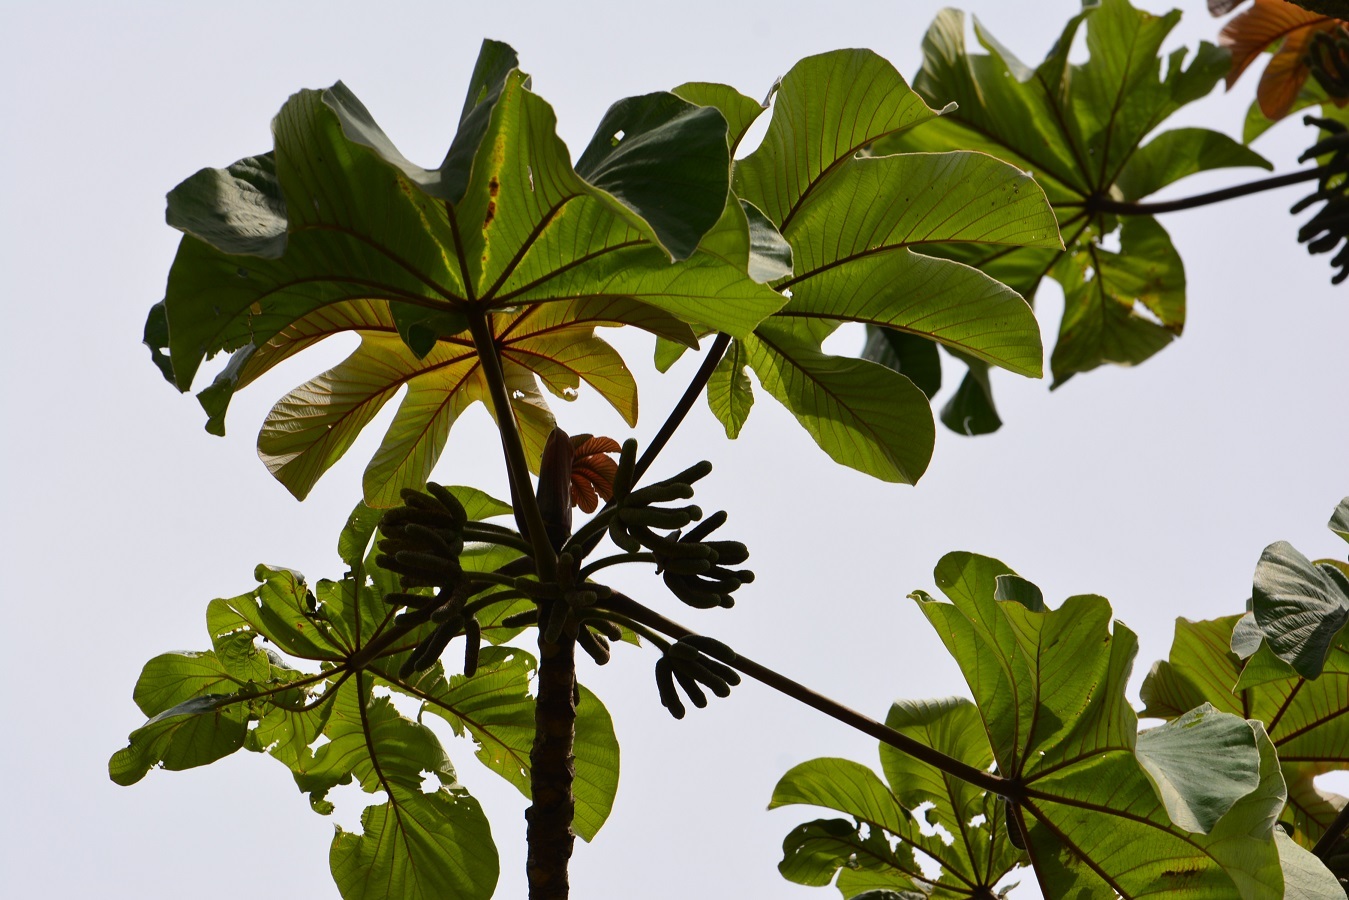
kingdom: Plantae
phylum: Tracheophyta
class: Magnoliopsida
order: Rosales
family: Urticaceae
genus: Cecropia
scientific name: Cecropia peltata
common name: Trumpet-tree
